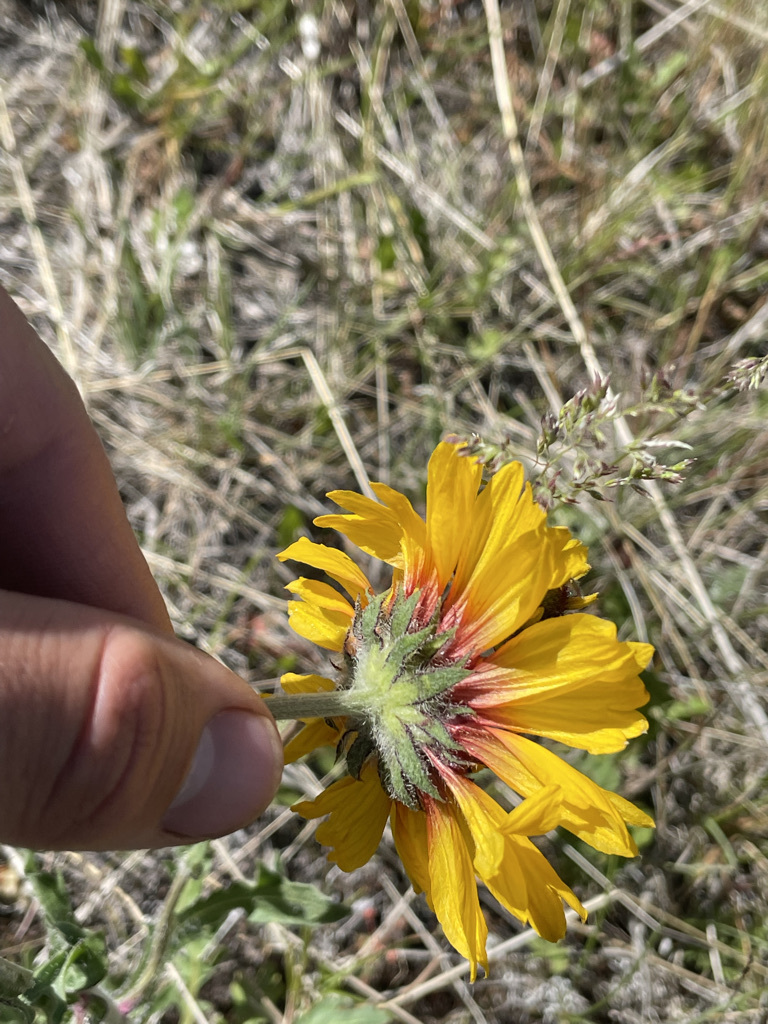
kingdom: Plantae
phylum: Tracheophyta
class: Magnoliopsida
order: Asterales
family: Asteraceae
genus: Gaillardia
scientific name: Gaillardia aristata
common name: Blanket-flower
